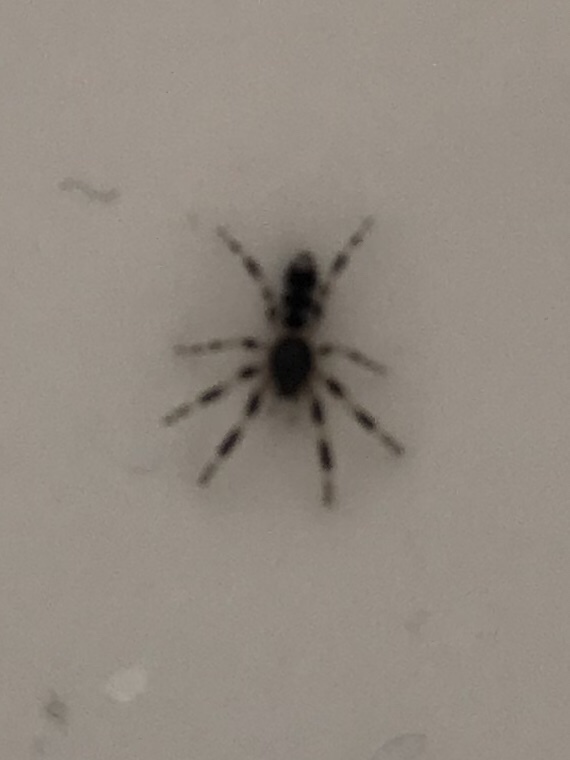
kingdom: Animalia
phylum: Arthropoda
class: Arachnida
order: Araneae
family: Lamponidae
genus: Lampona
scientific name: Lampona cylindrata
